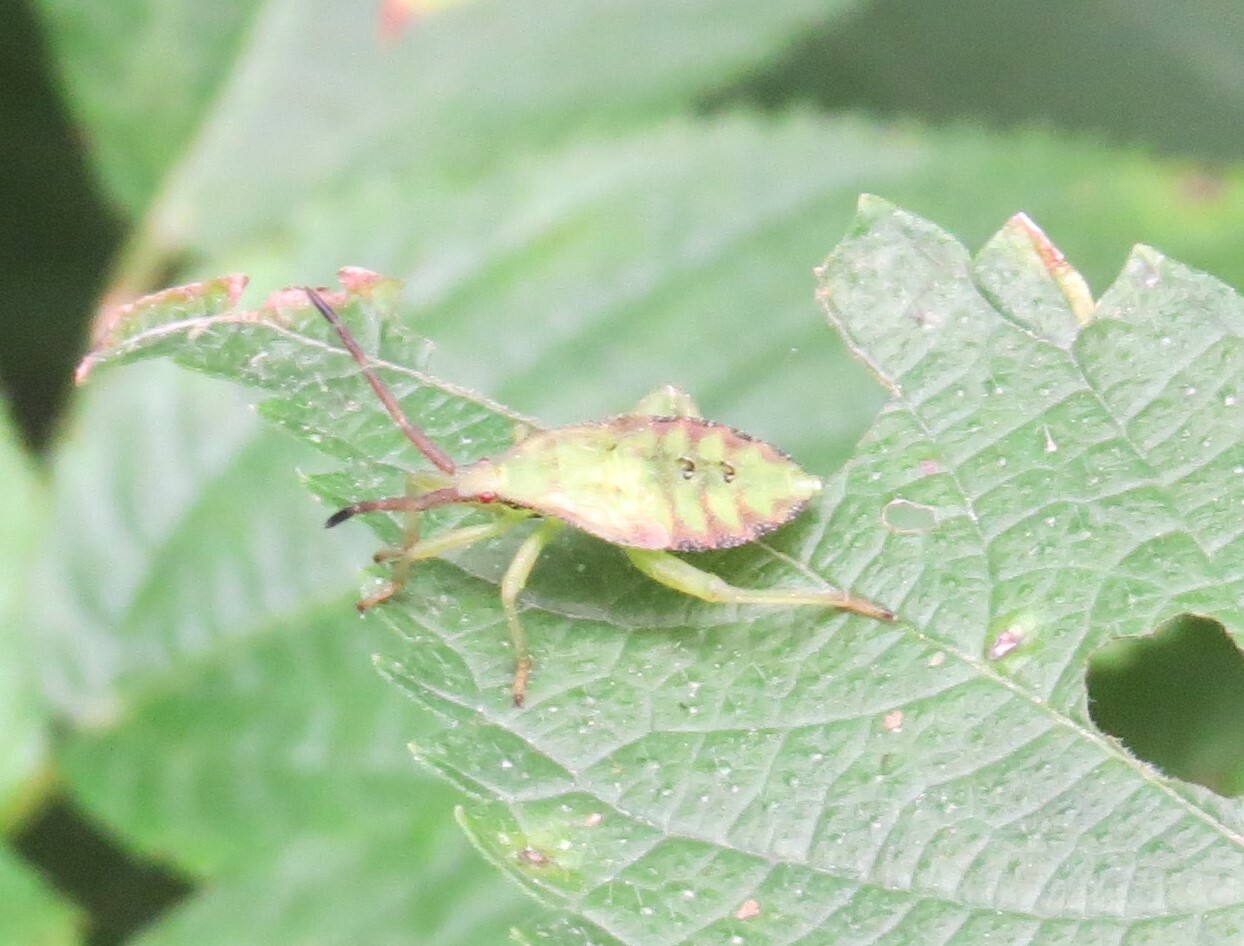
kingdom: Animalia
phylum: Arthropoda
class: Insecta
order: Hemiptera
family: Coreidae
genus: Piezogaster
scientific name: Piezogaster calcarator
